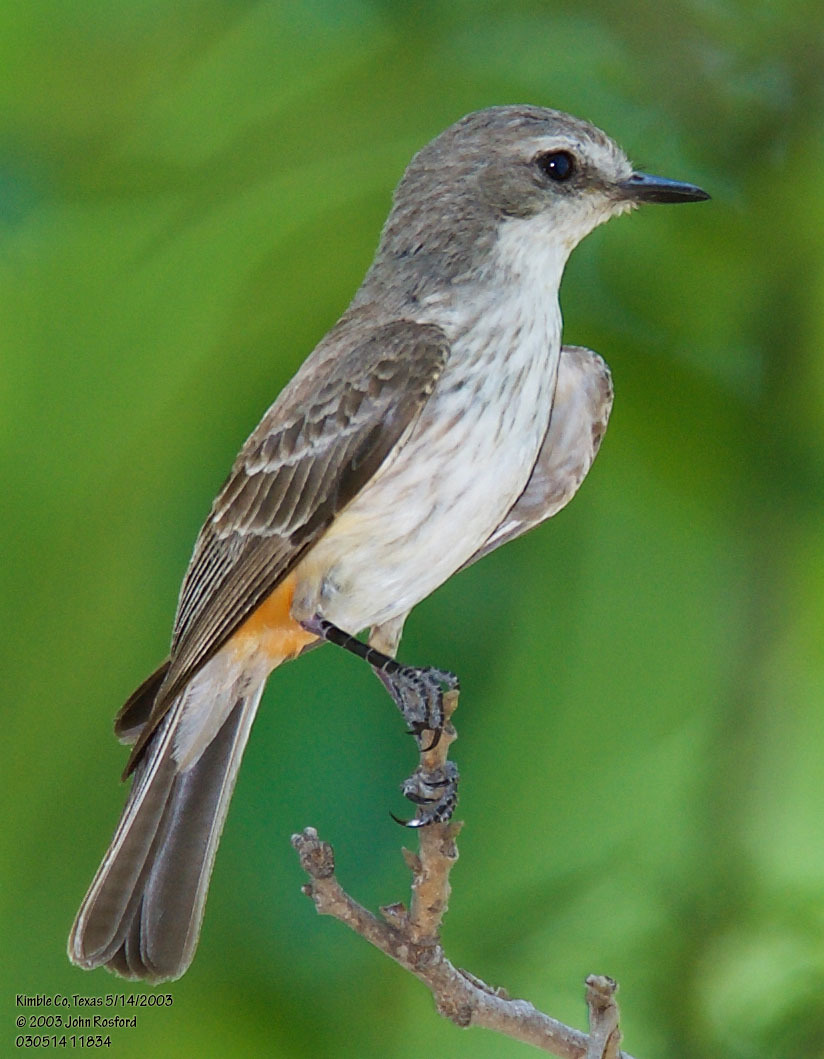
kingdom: Animalia
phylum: Chordata
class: Aves
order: Passeriformes
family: Tyrannidae
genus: Pyrocephalus
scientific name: Pyrocephalus rubinus
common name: Vermilion flycatcher
